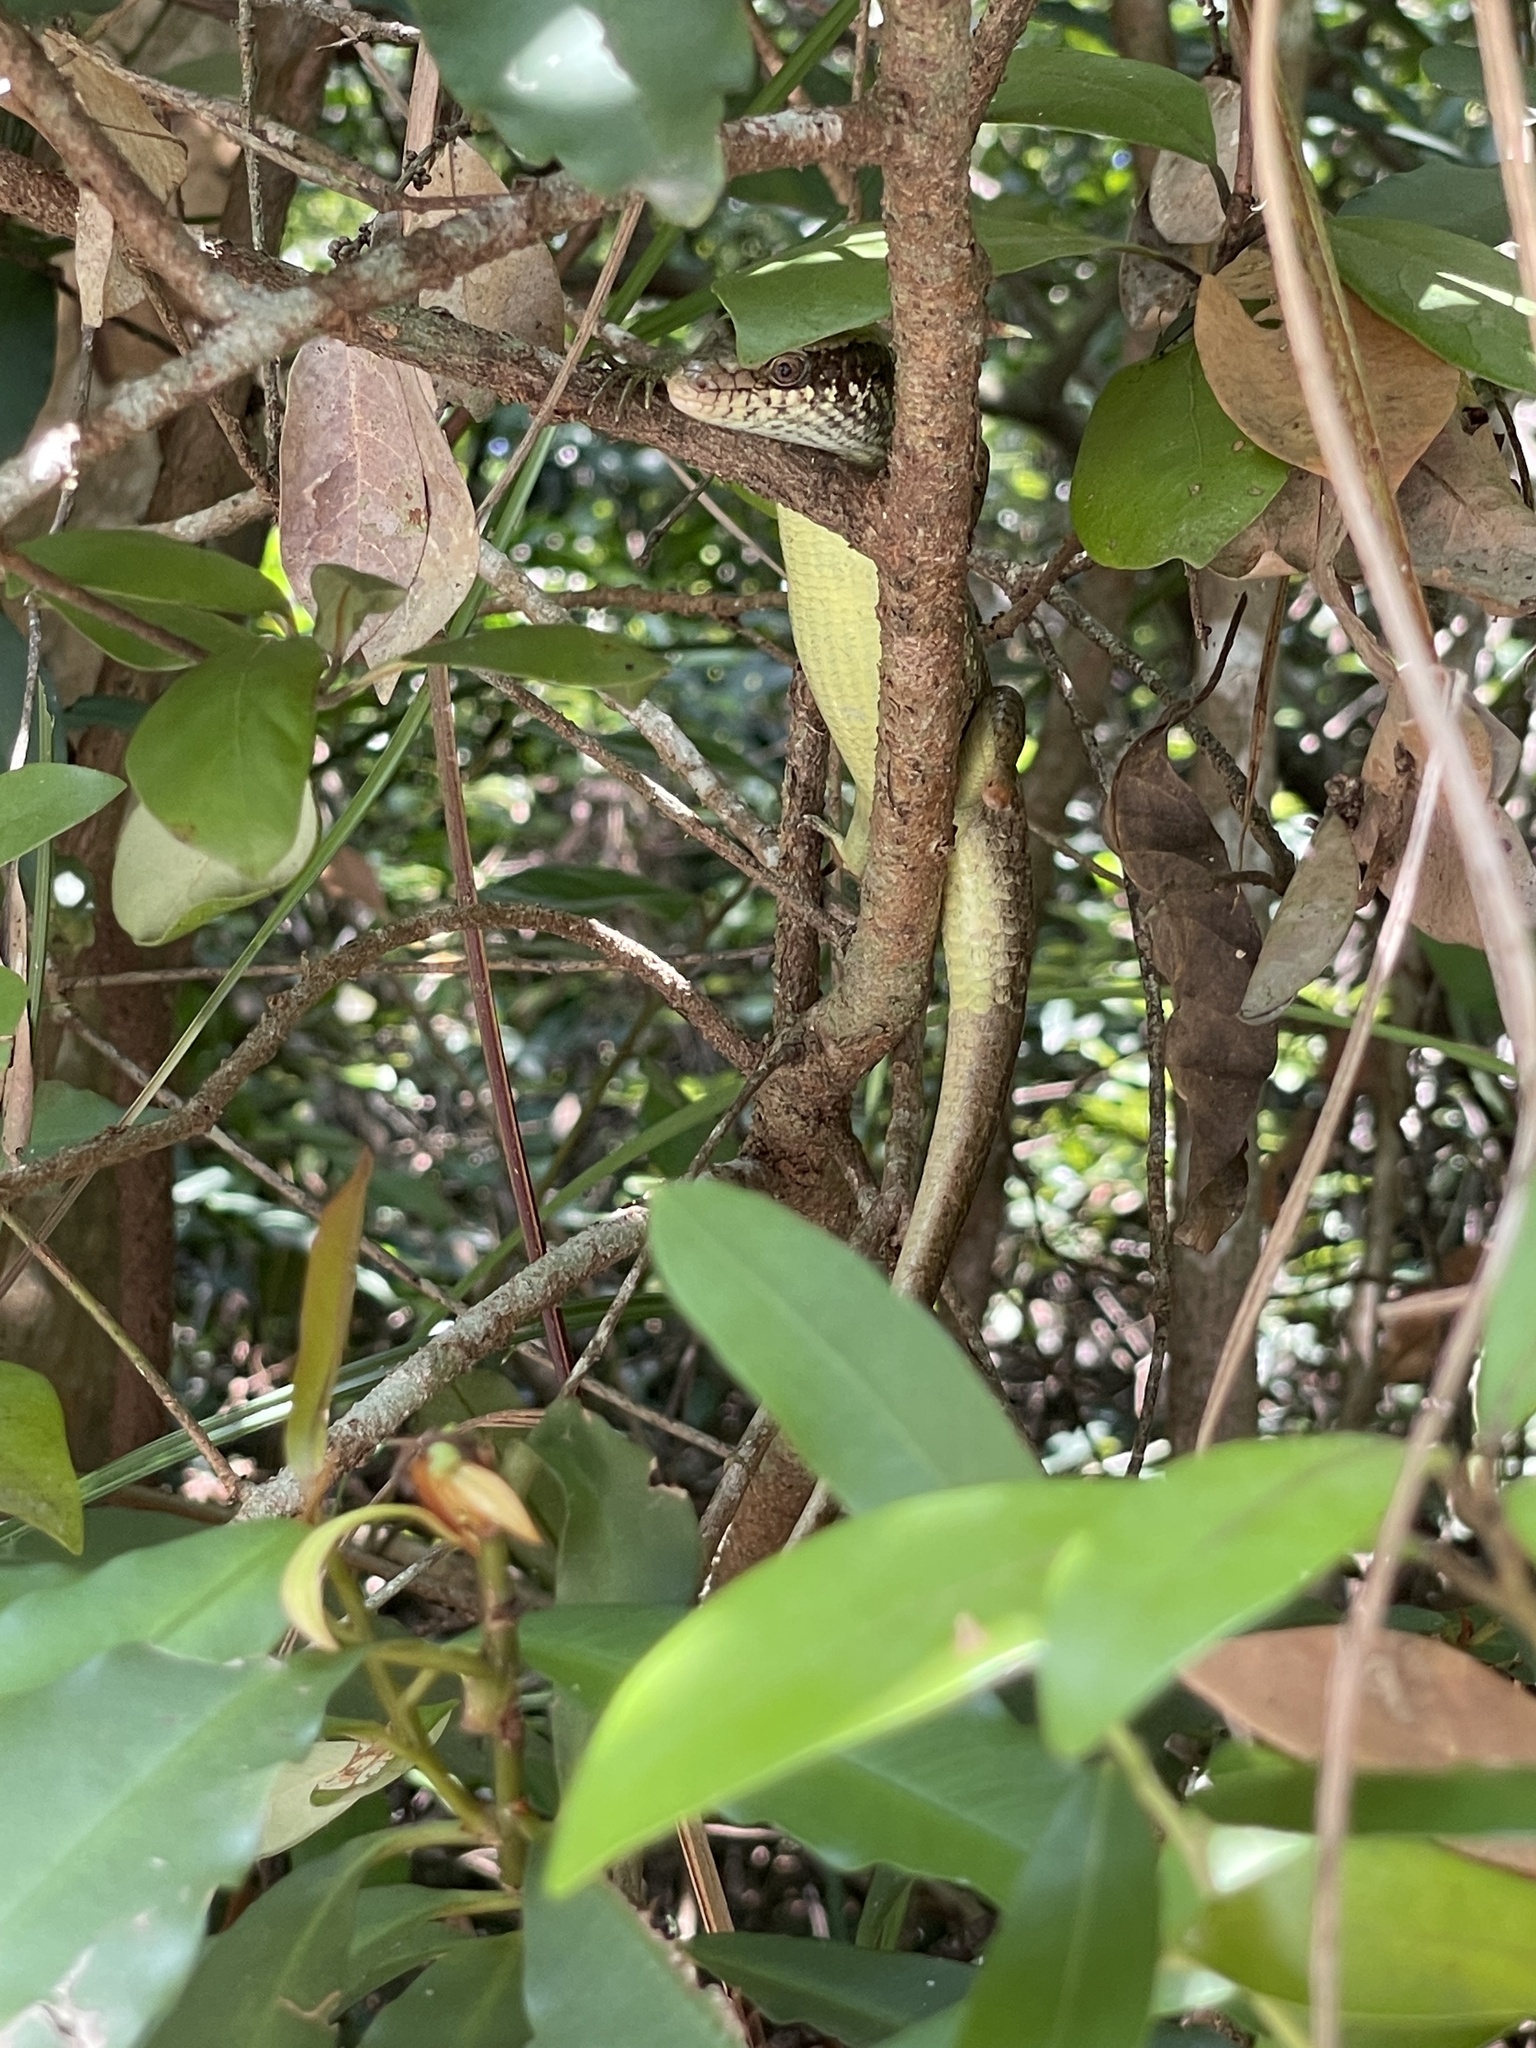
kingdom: Animalia
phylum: Chordata
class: Squamata
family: Scincidae
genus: Eutropis
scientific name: Eutropis longicaudata
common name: Long-tailed sun skink
